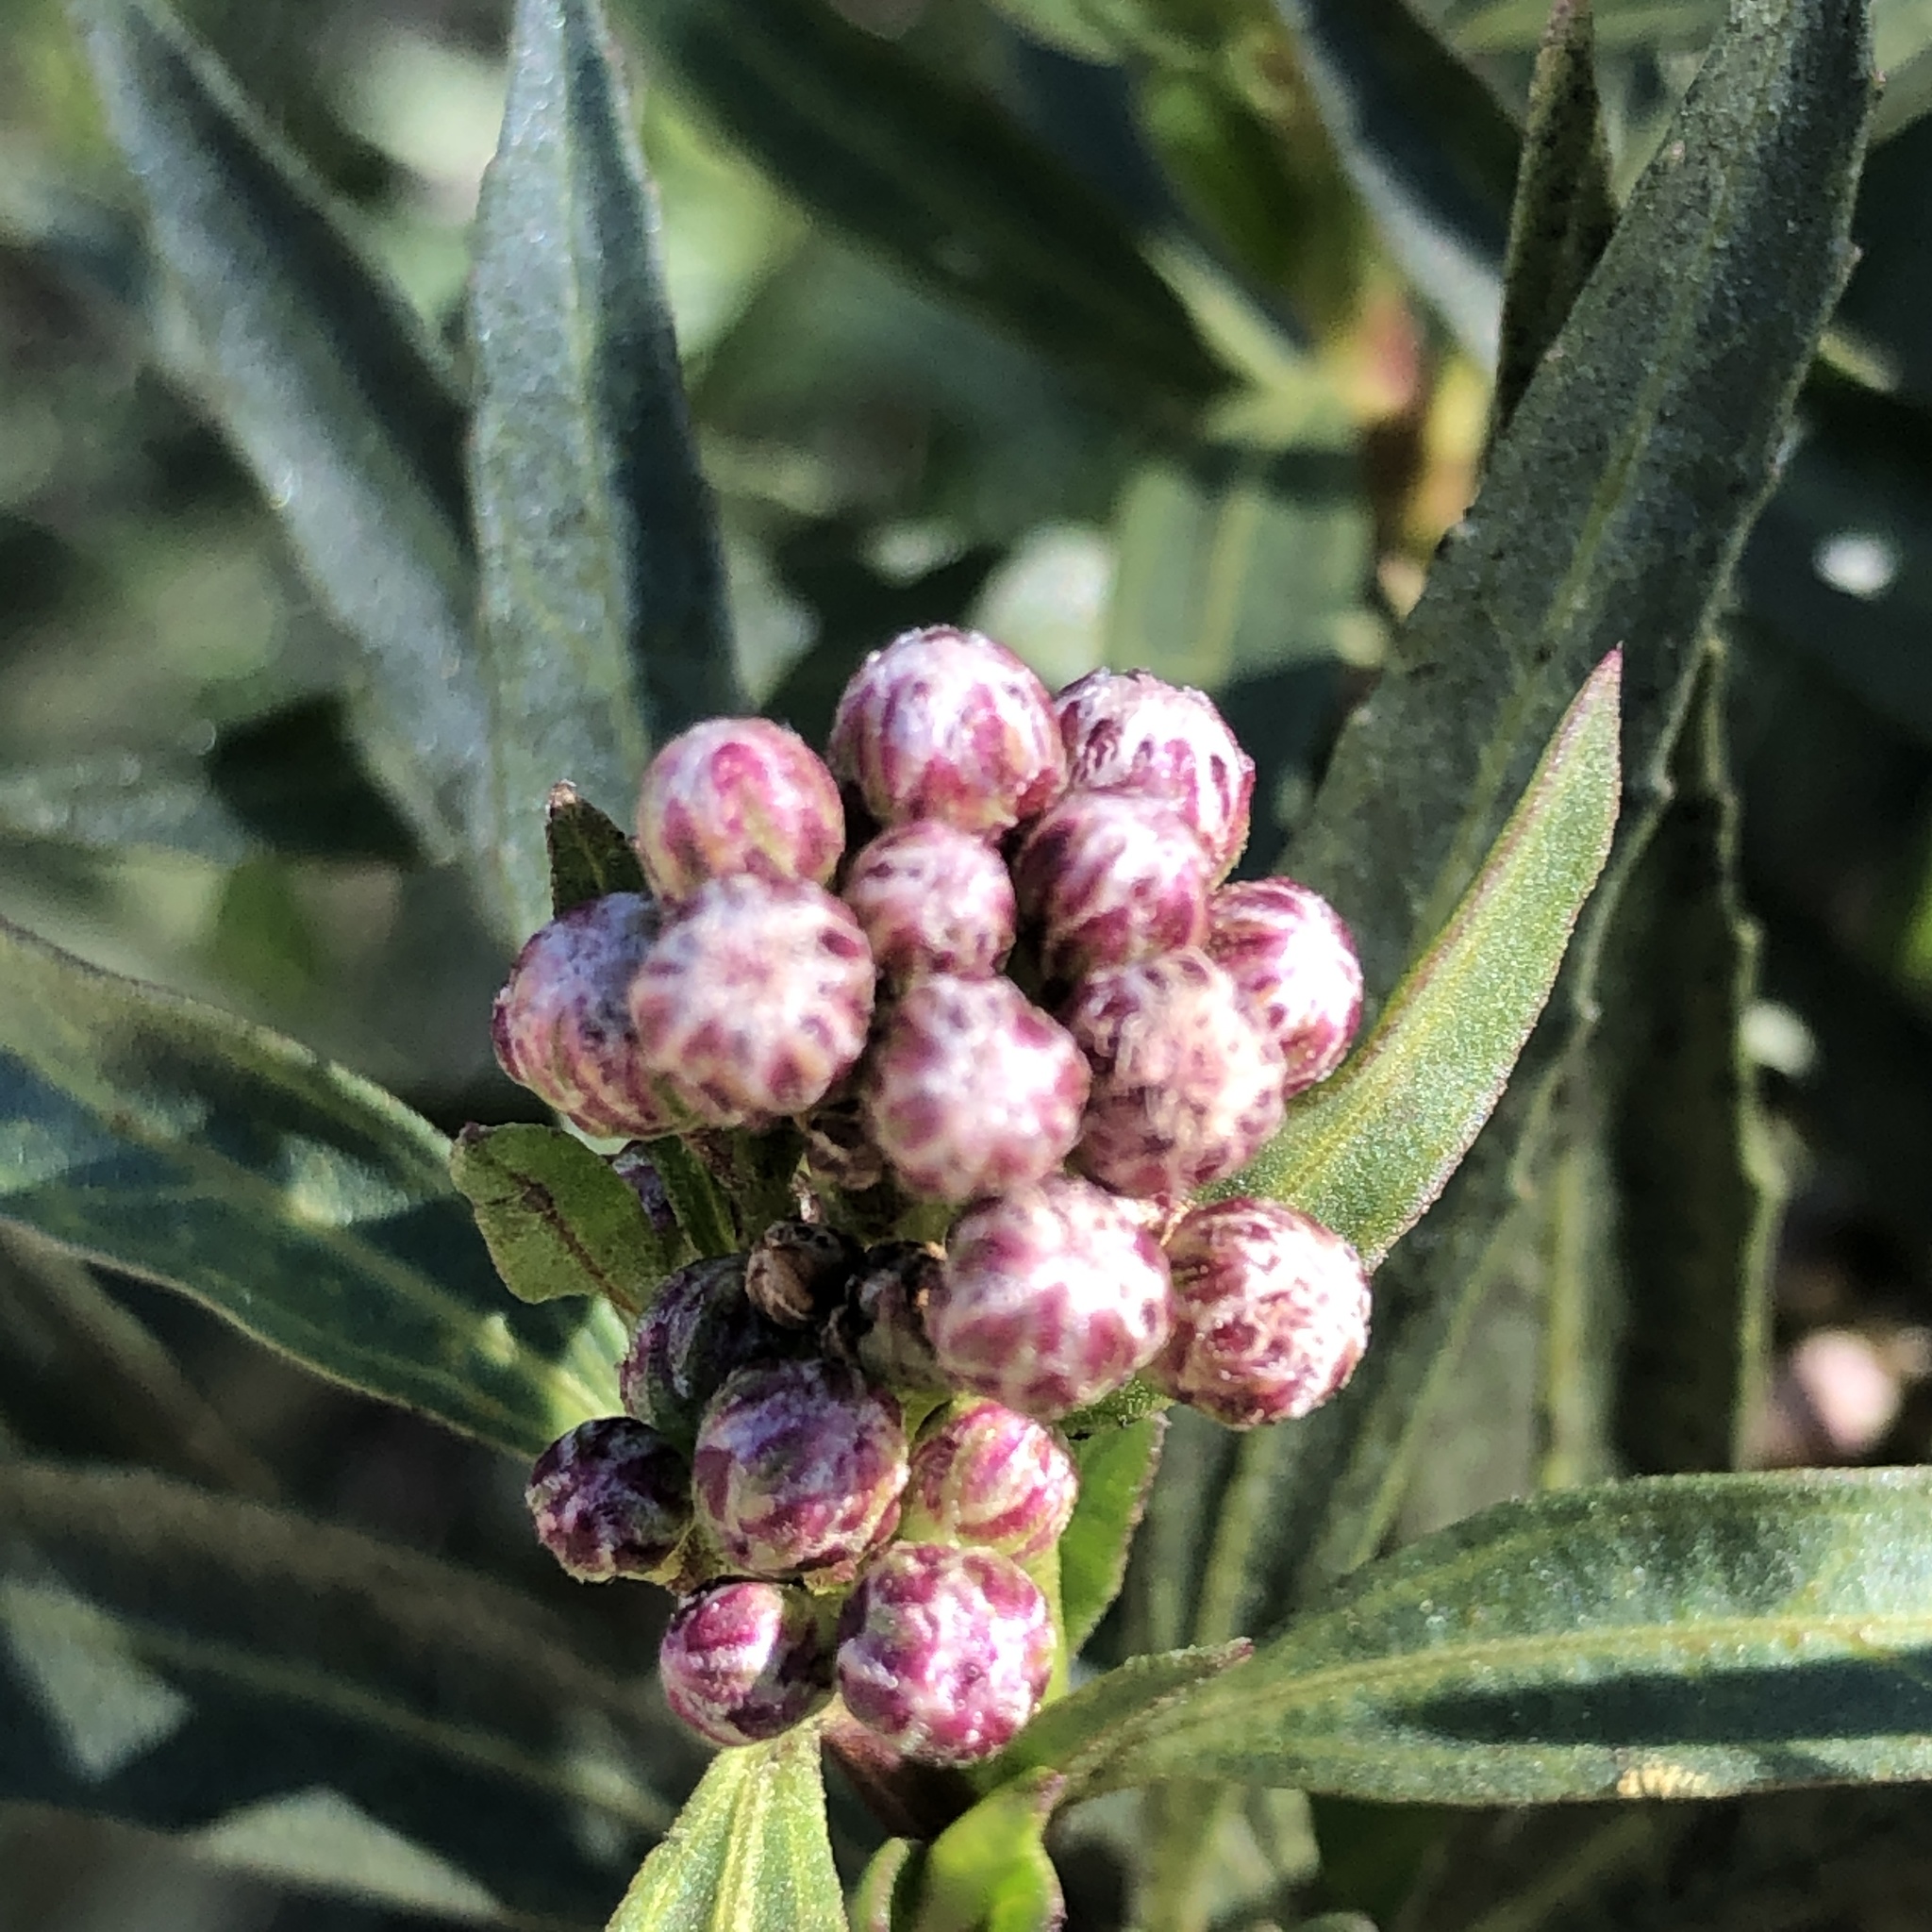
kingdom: Plantae
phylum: Tracheophyta
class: Magnoliopsida
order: Asterales
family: Asteraceae
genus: Baccharis
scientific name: Baccharis salicifolia
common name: Sticky baccharis
